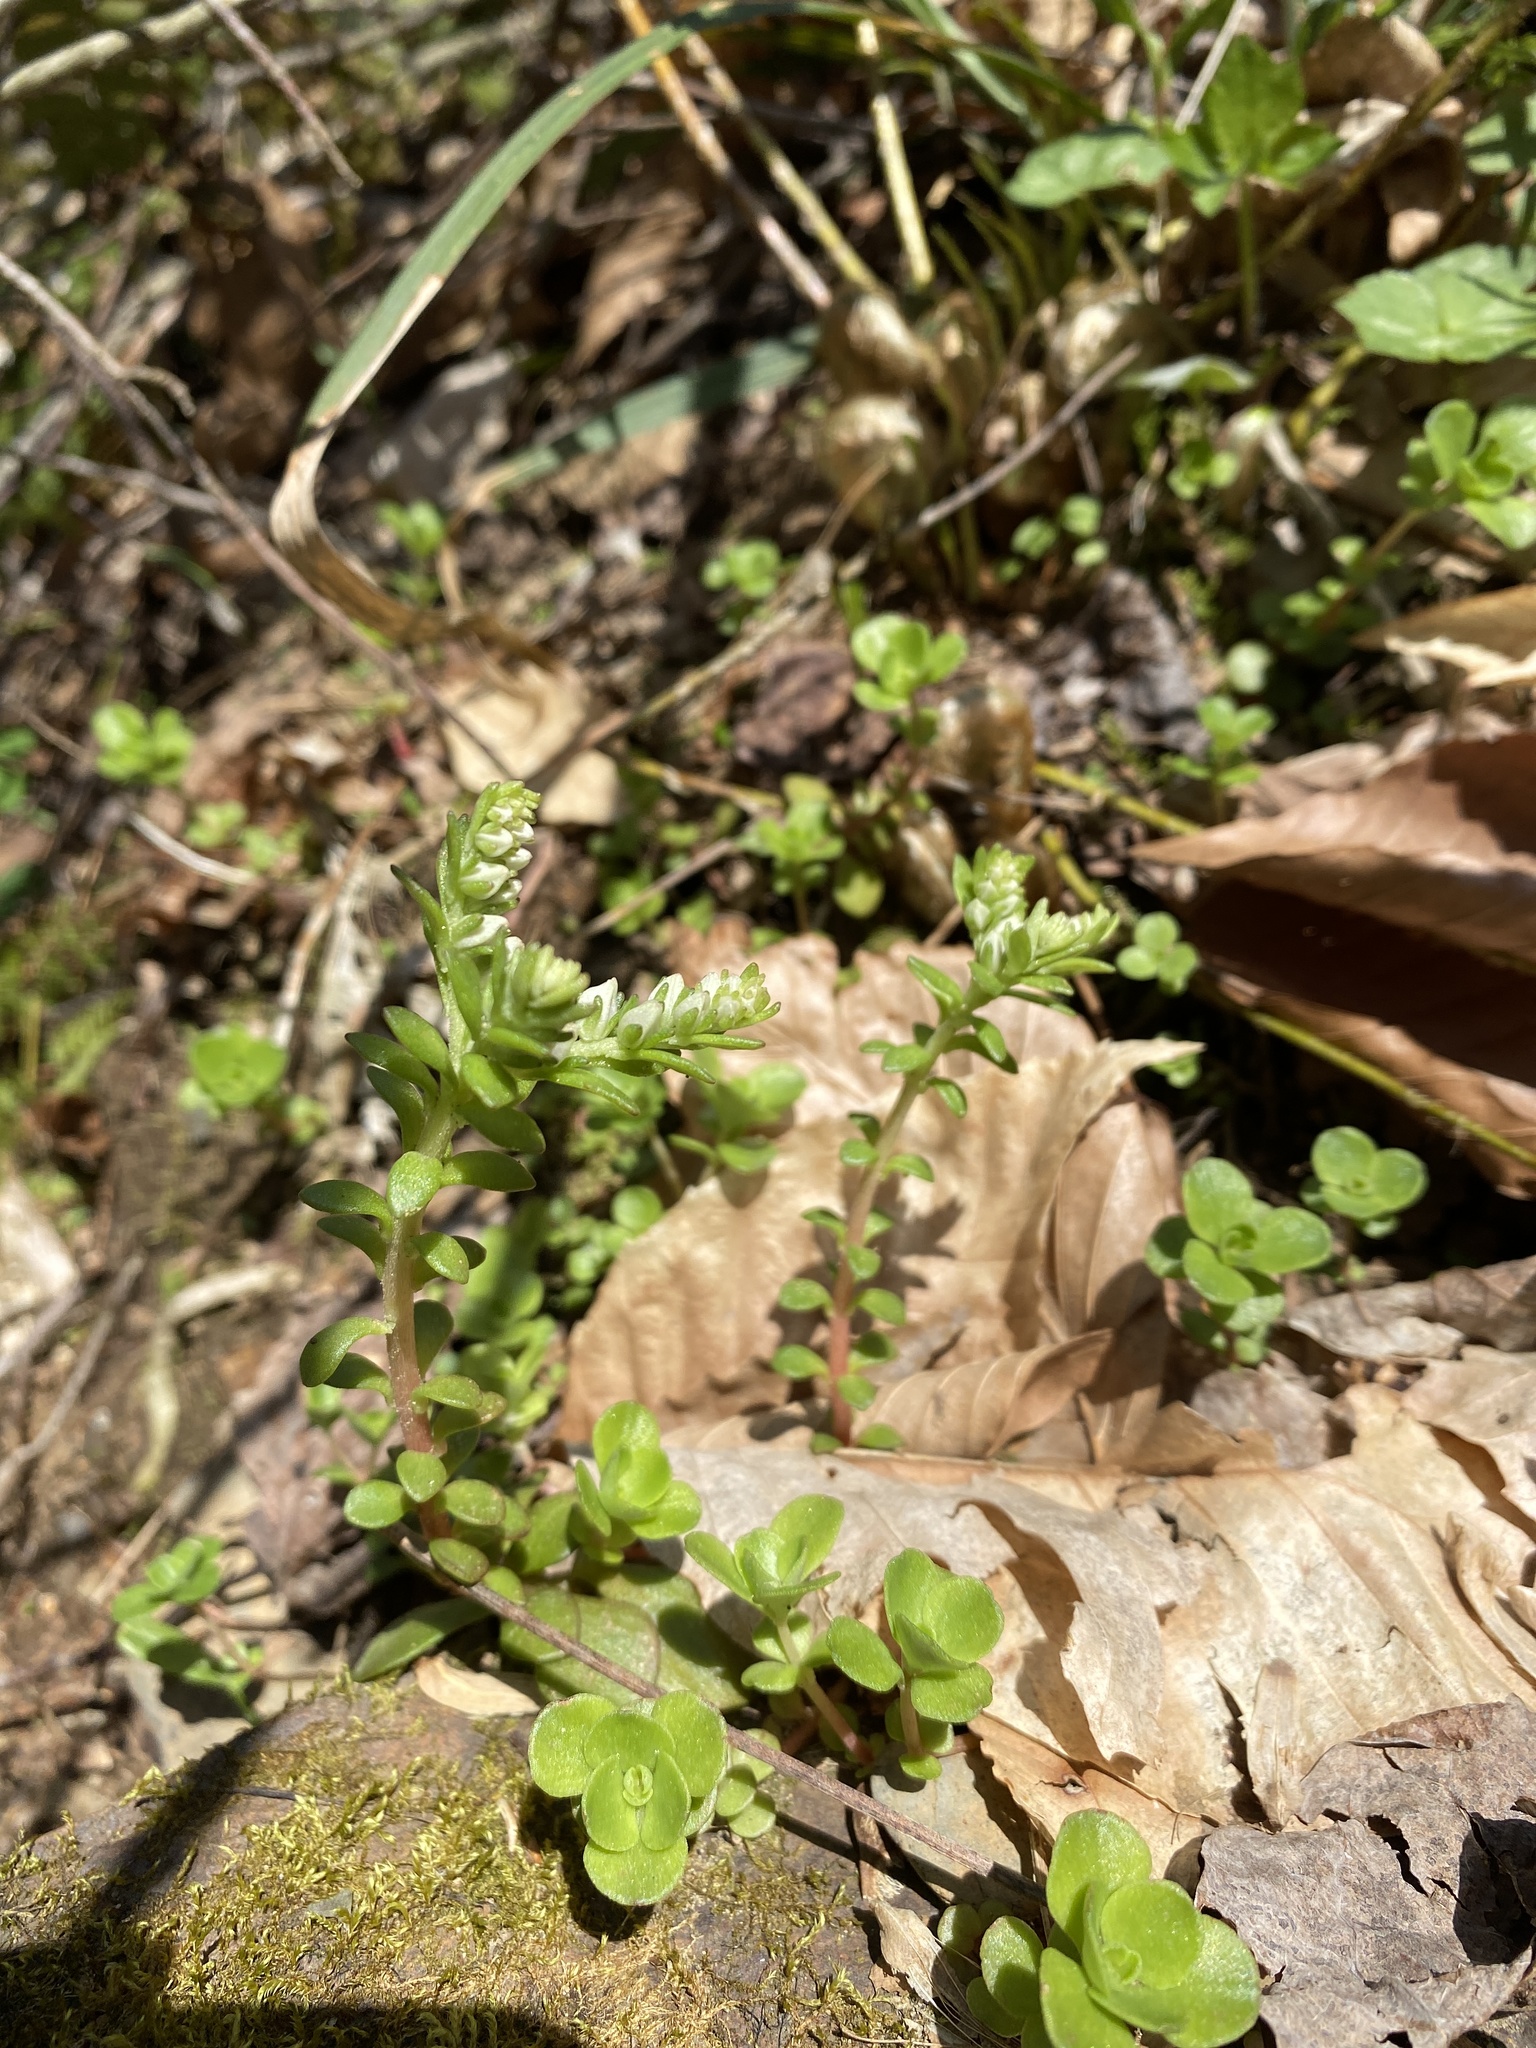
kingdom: Plantae
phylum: Tracheophyta
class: Magnoliopsida
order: Saxifragales
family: Crassulaceae
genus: Sedum
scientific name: Sedum ternatum
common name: Wild stonecrop
